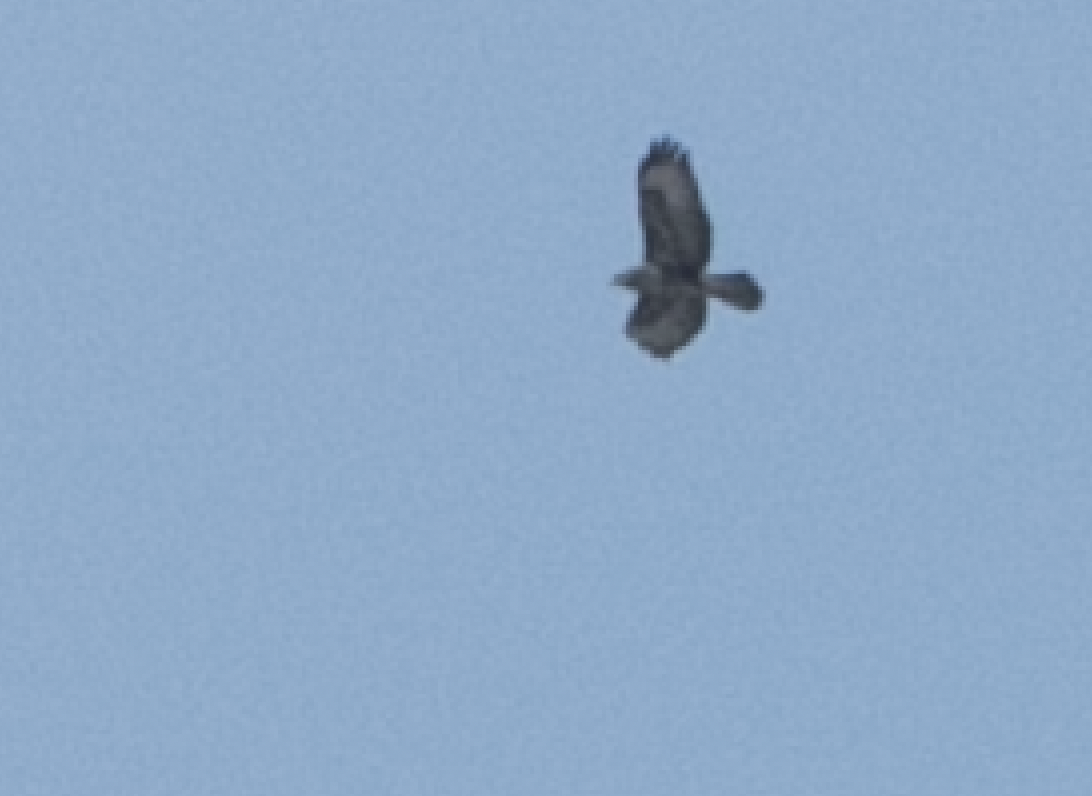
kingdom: Animalia
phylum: Chordata
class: Aves
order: Accipitriformes
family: Accipitridae
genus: Buteo
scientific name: Buteo buteo
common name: Common buzzard
